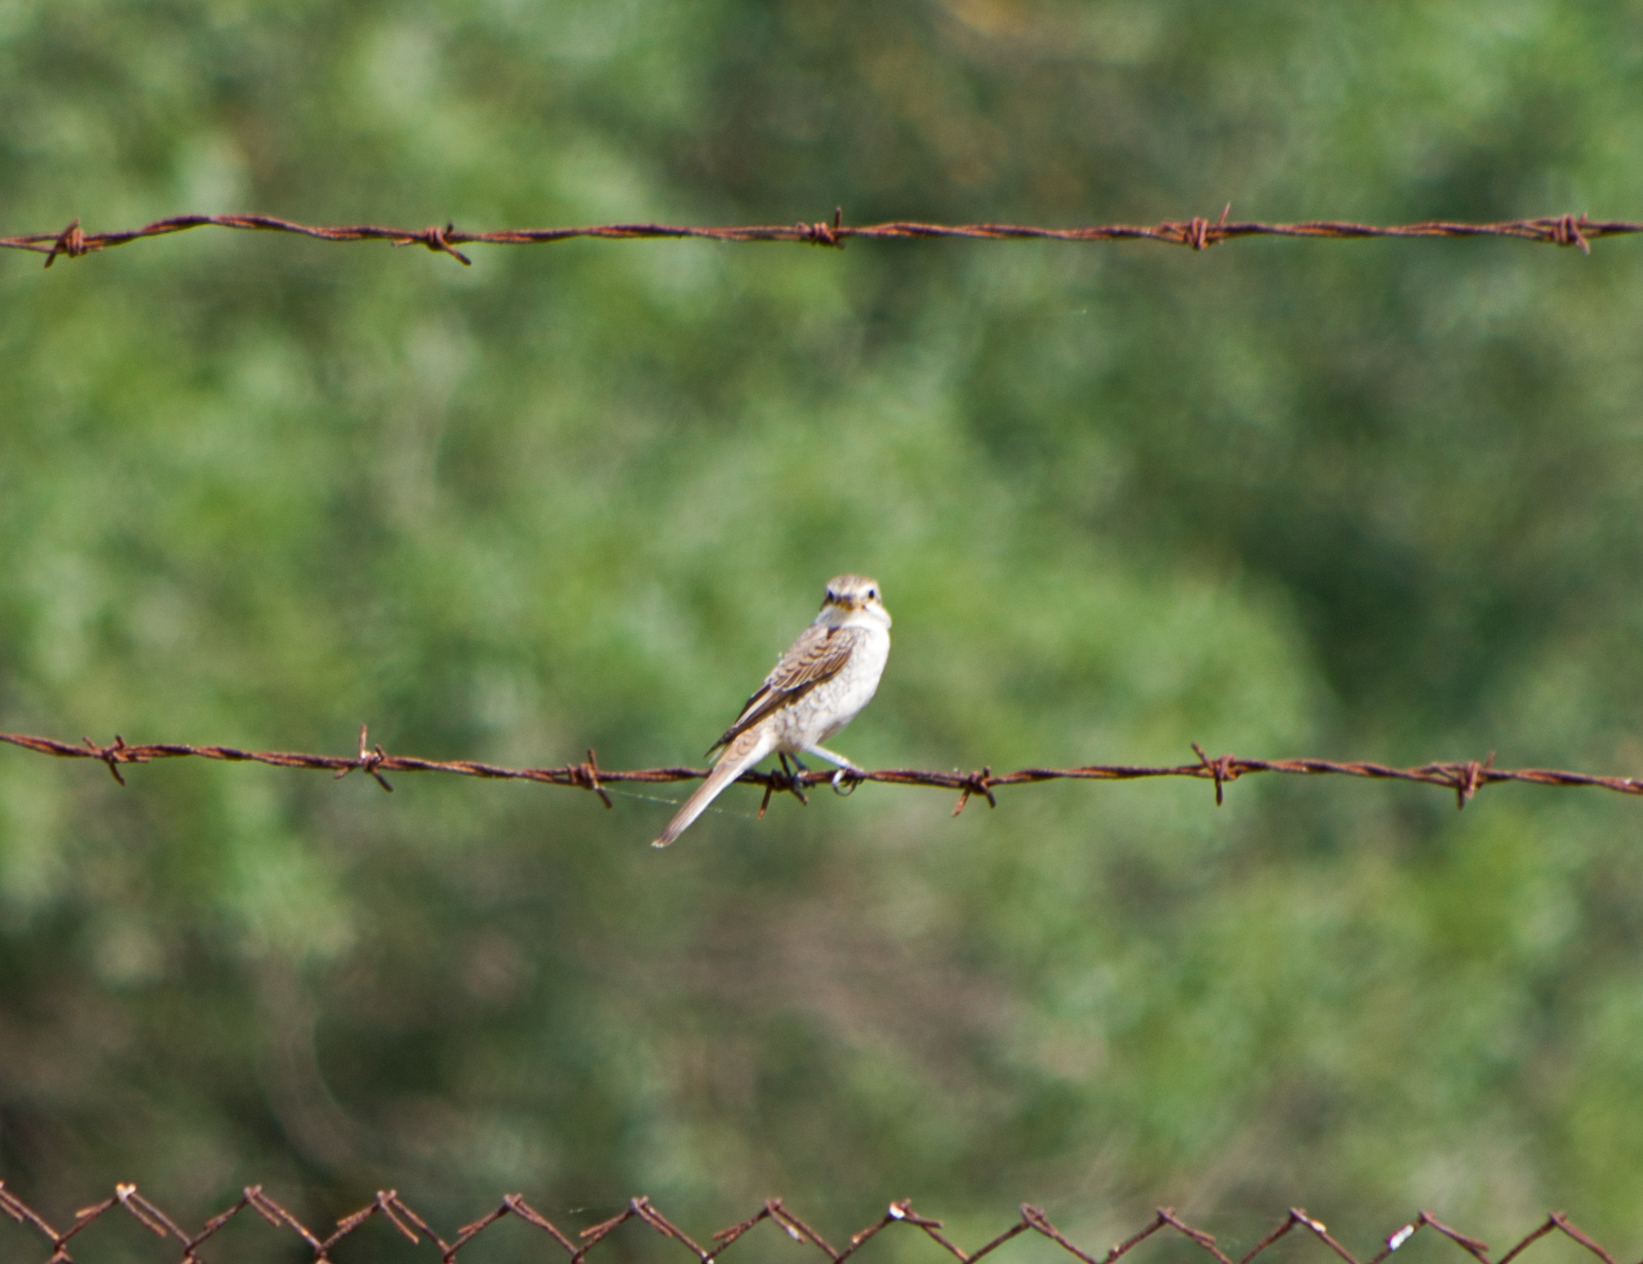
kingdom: Animalia
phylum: Chordata
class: Aves
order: Passeriformes
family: Laniidae
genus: Lanius
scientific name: Lanius collurio
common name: Red-backed shrike
